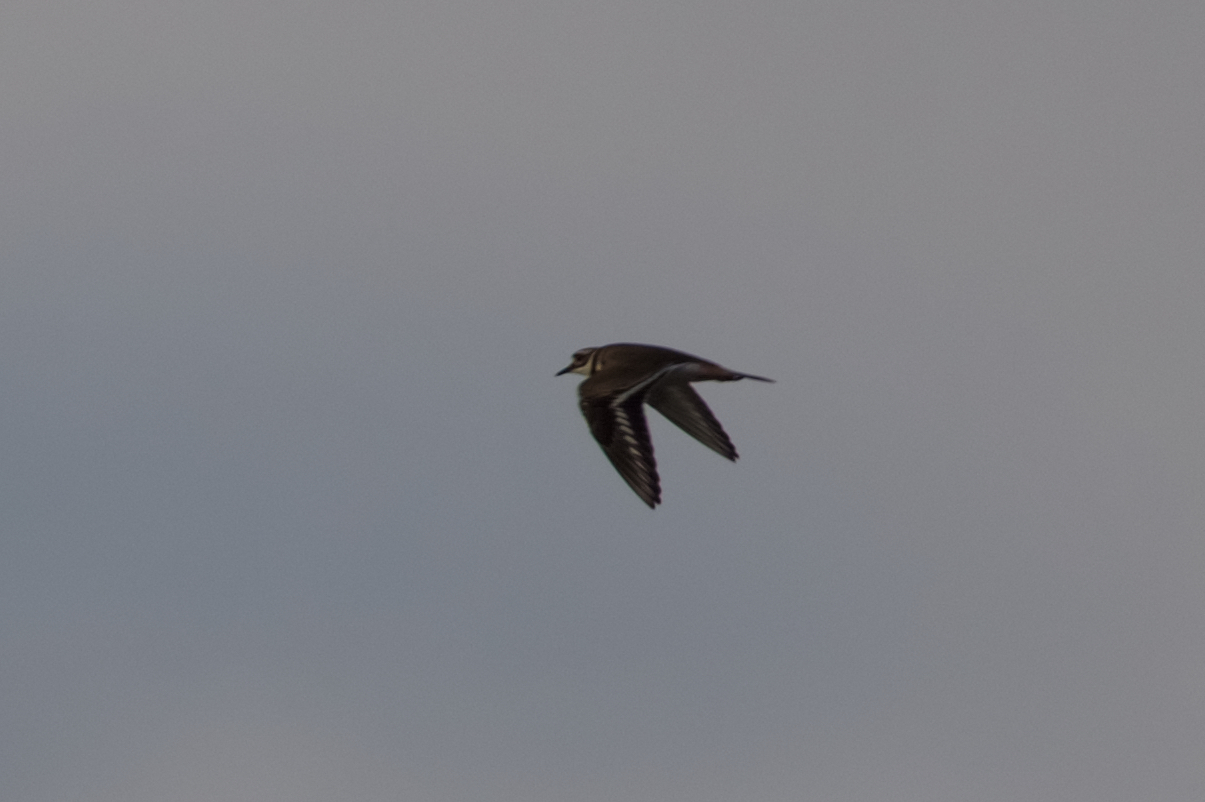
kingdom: Animalia
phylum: Chordata
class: Aves
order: Charadriiformes
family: Charadriidae
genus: Charadrius
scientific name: Charadrius vociferus
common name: Killdeer
